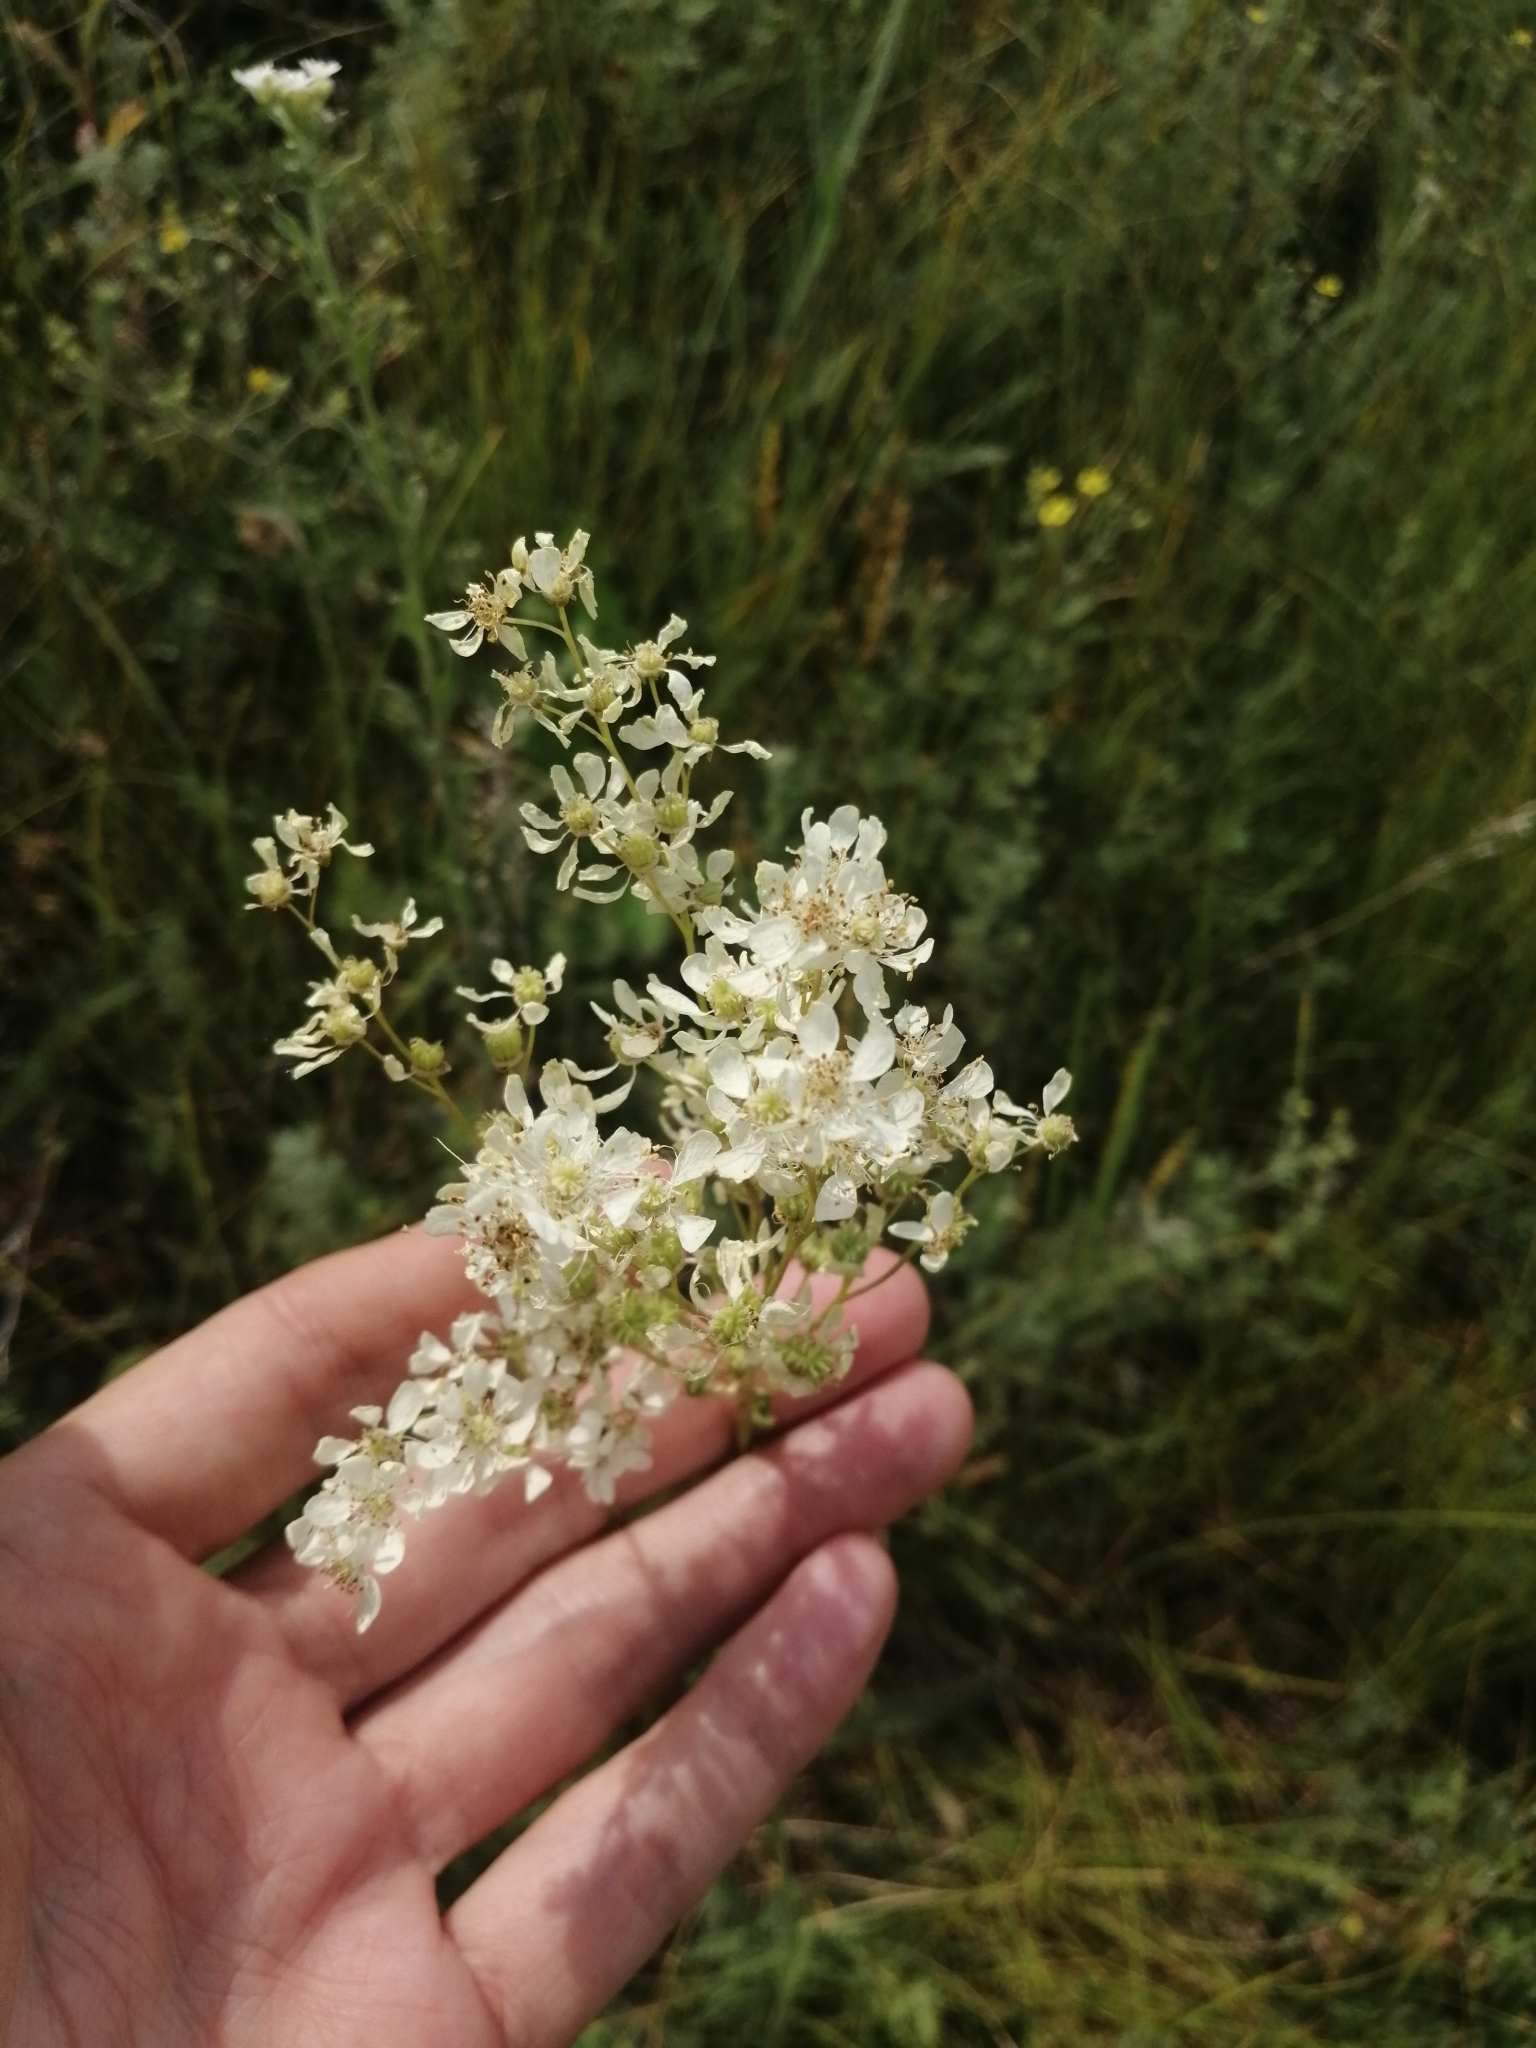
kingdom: Plantae
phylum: Tracheophyta
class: Magnoliopsida
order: Rosales
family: Rosaceae
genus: Filipendula
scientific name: Filipendula vulgaris
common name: Dropwort
